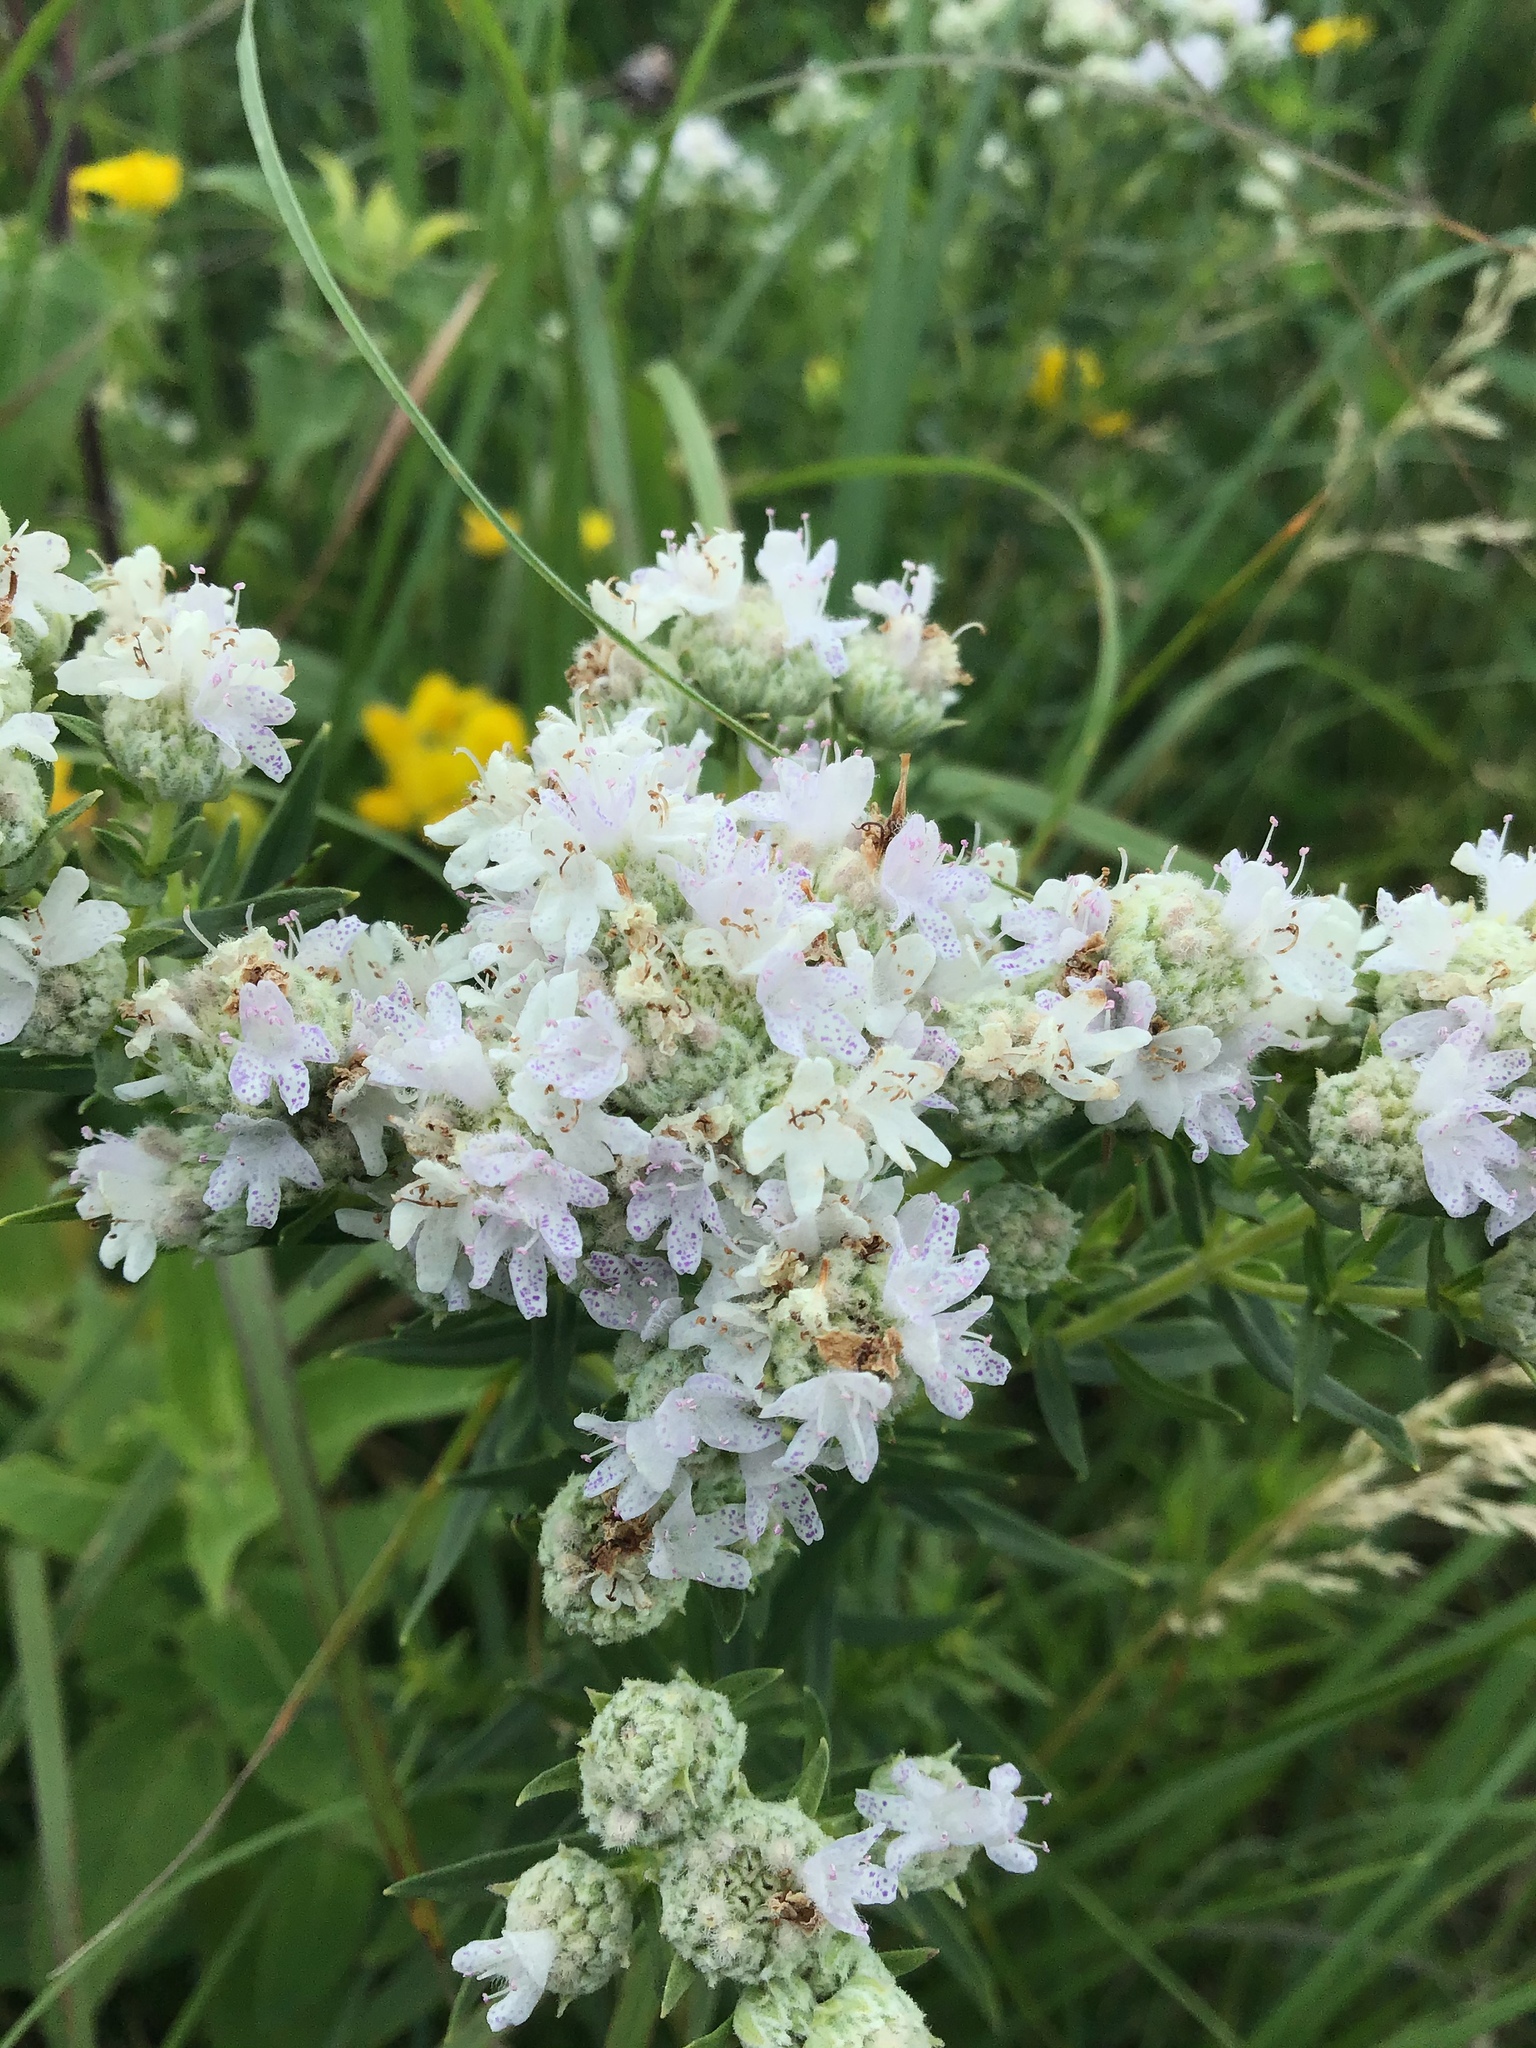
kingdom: Plantae
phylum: Tracheophyta
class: Magnoliopsida
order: Lamiales
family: Lamiaceae
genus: Pycnanthemum
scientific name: Pycnanthemum virginianum
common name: Virginia mountain-mint
